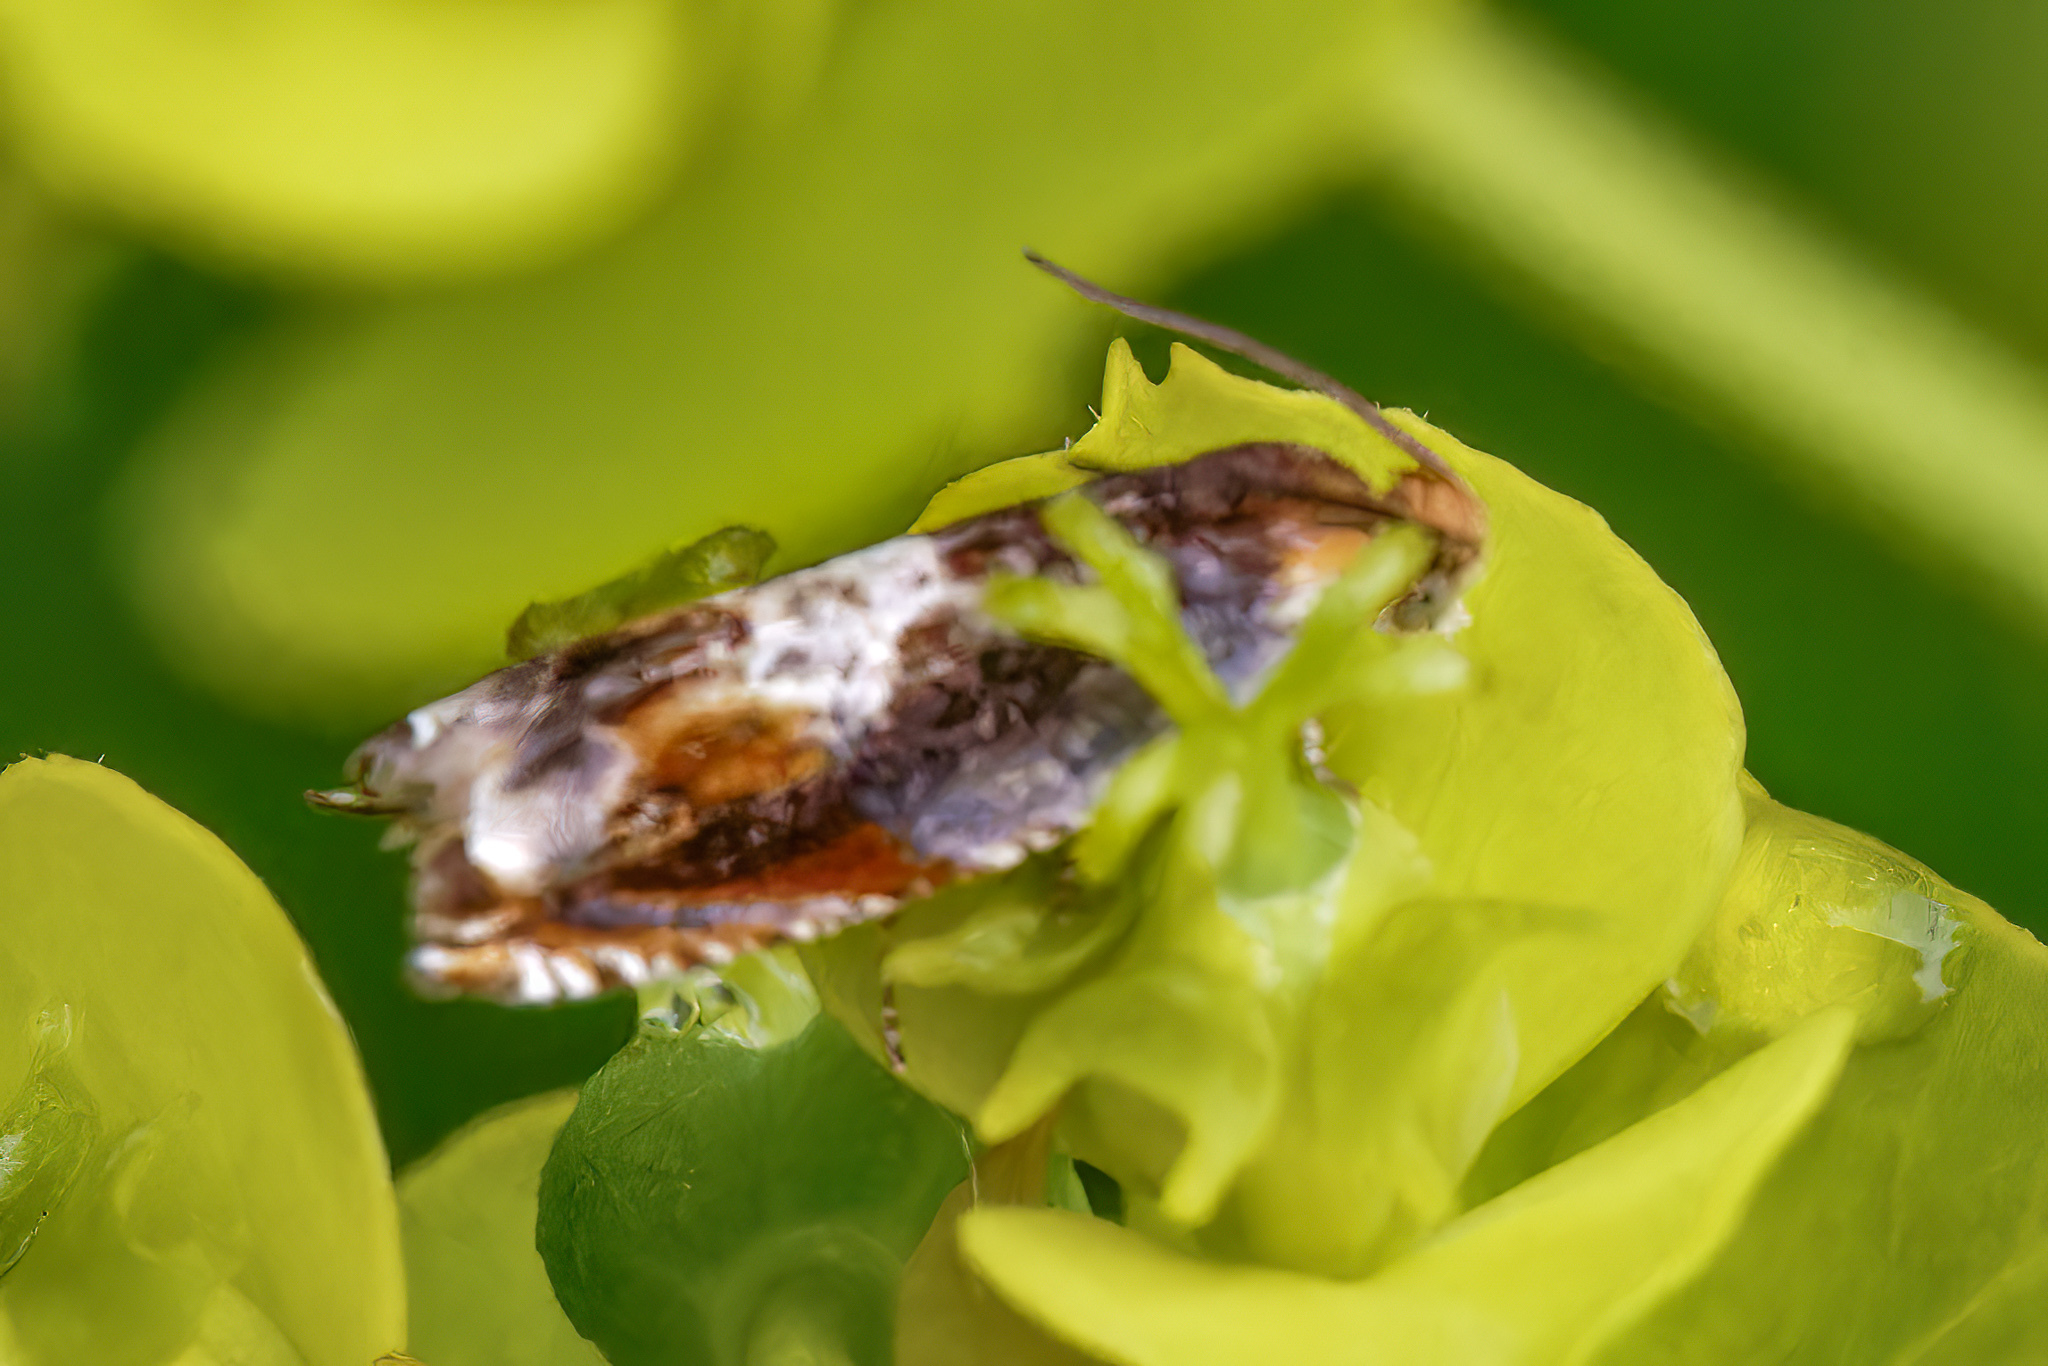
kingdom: Animalia
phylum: Arthropoda
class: Insecta
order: Lepidoptera
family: Tortricidae
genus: Ancylis
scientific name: Ancylis muricana
